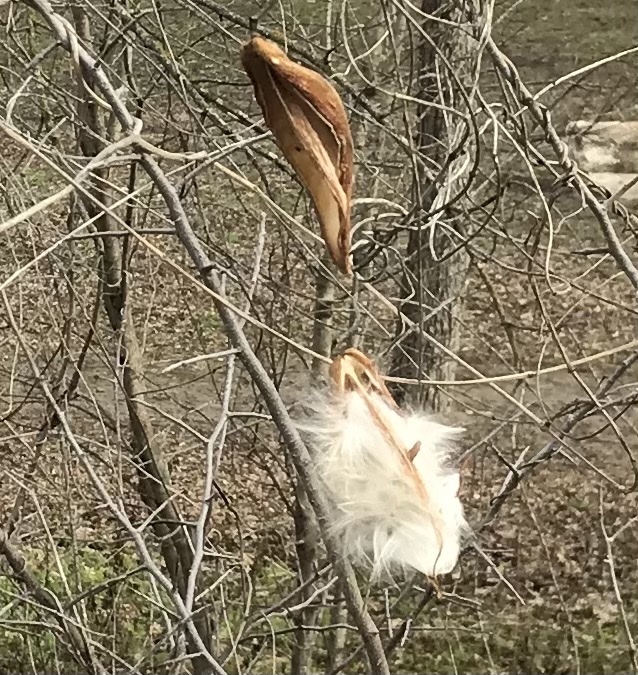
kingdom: Plantae
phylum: Tracheophyta
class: Magnoliopsida
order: Gentianales
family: Apocynaceae
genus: Cynanchum
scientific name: Cynanchum racemosum
